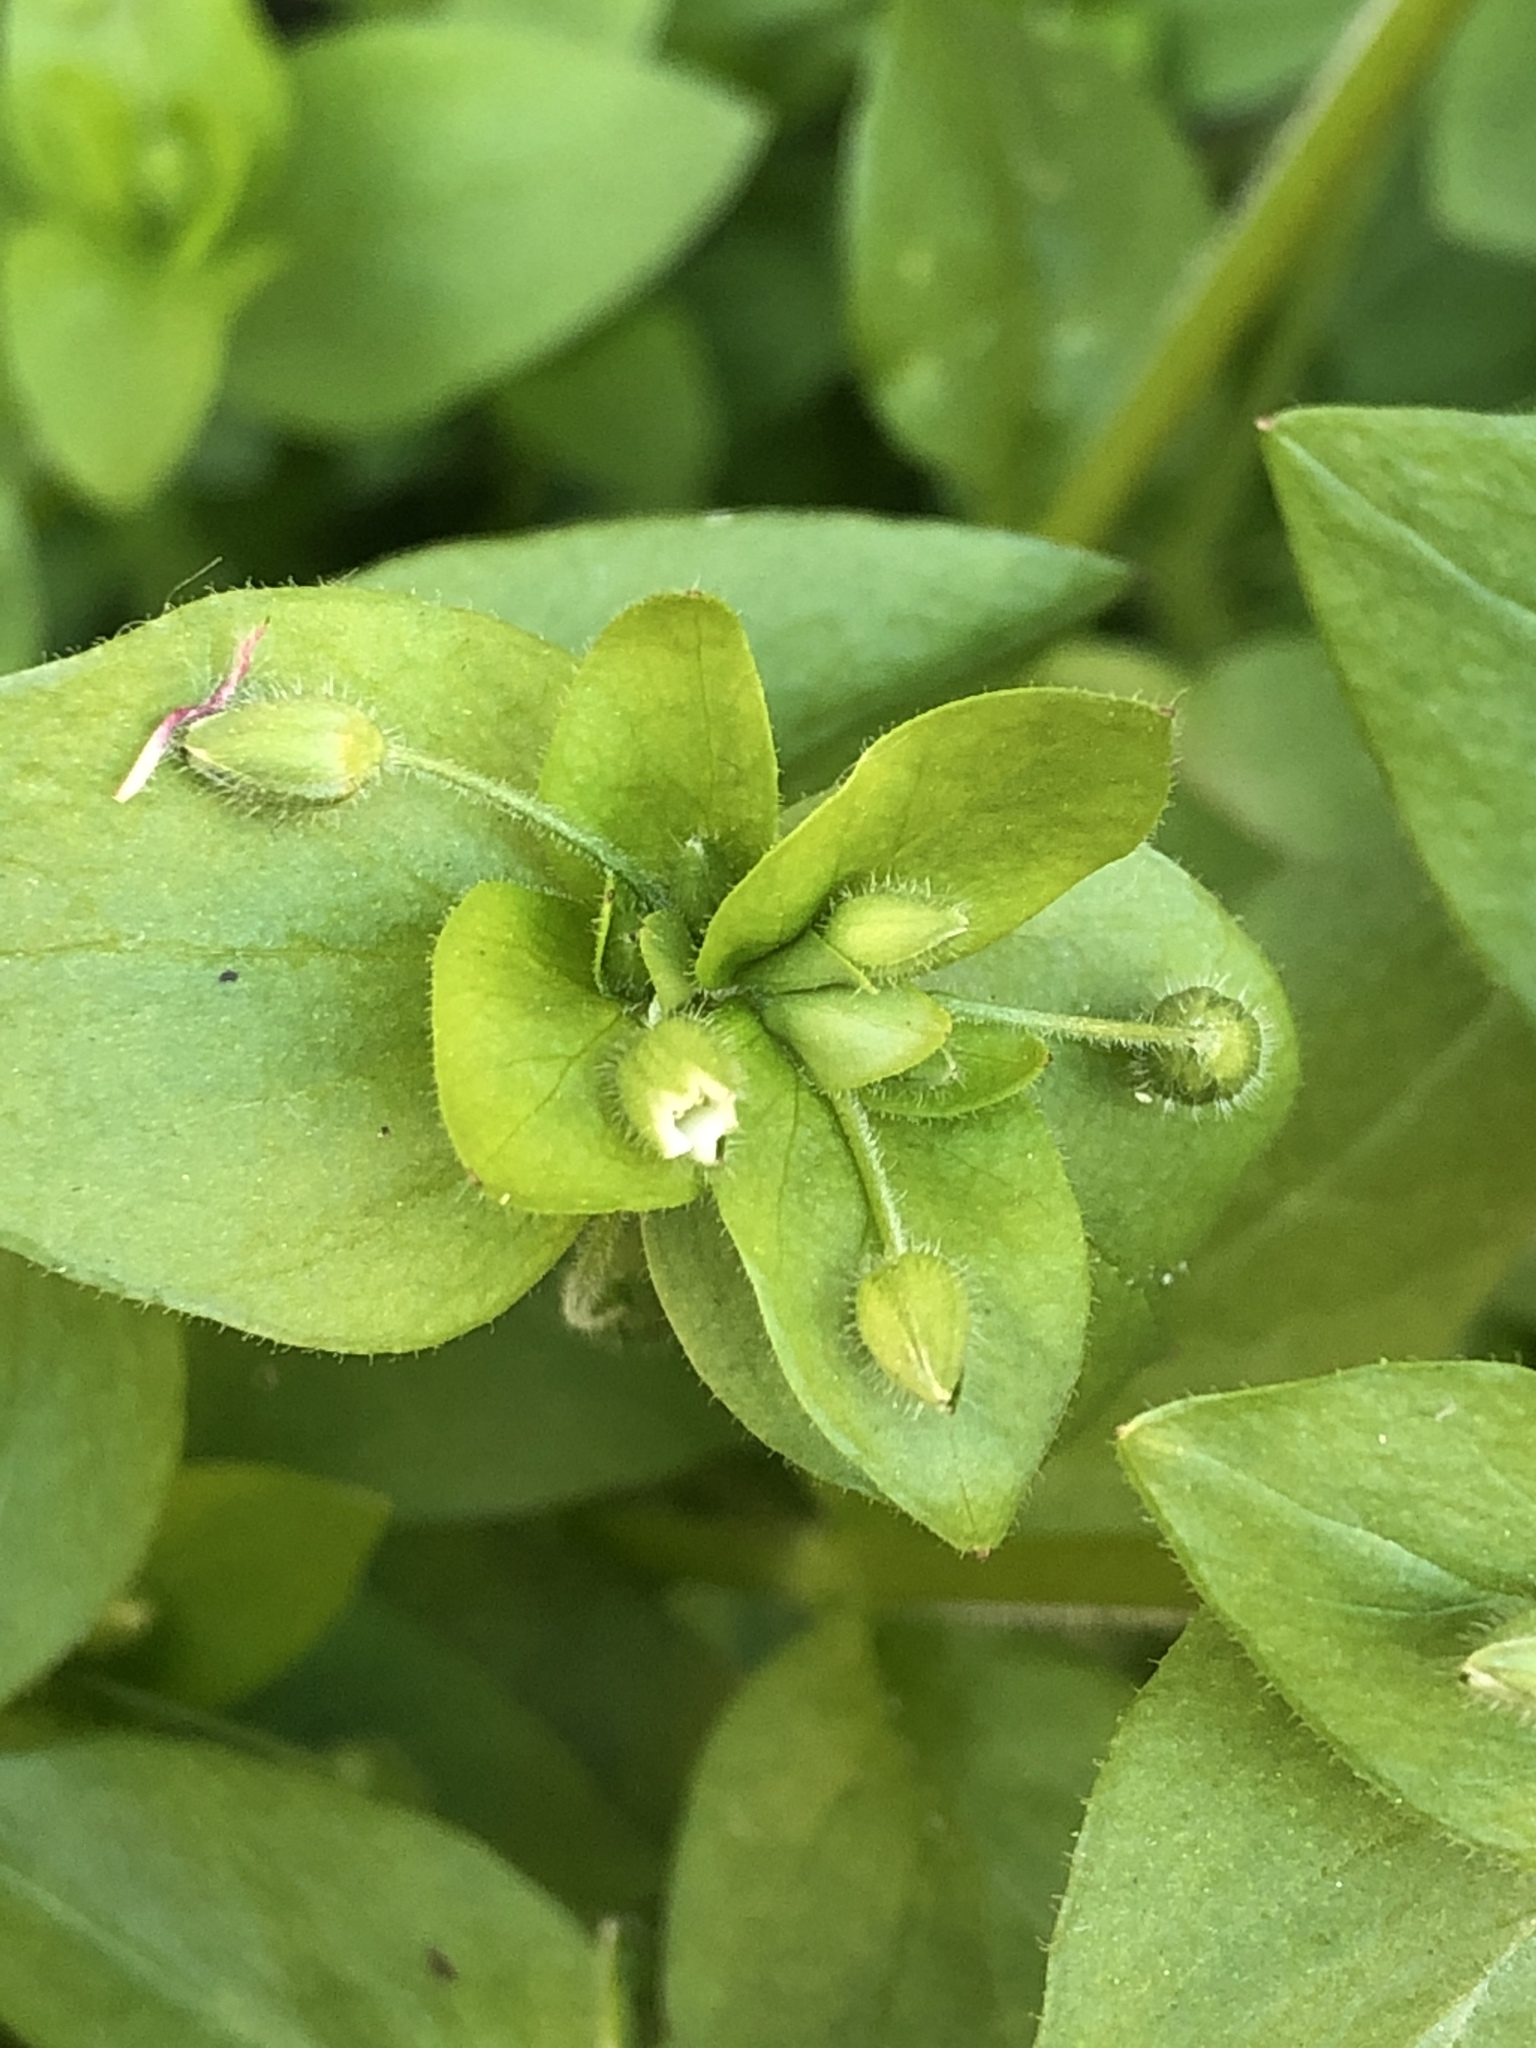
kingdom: Plantae
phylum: Tracheophyta
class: Magnoliopsida
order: Caryophyllales
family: Caryophyllaceae
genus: Stellaria
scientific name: Stellaria media
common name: Common chickweed
